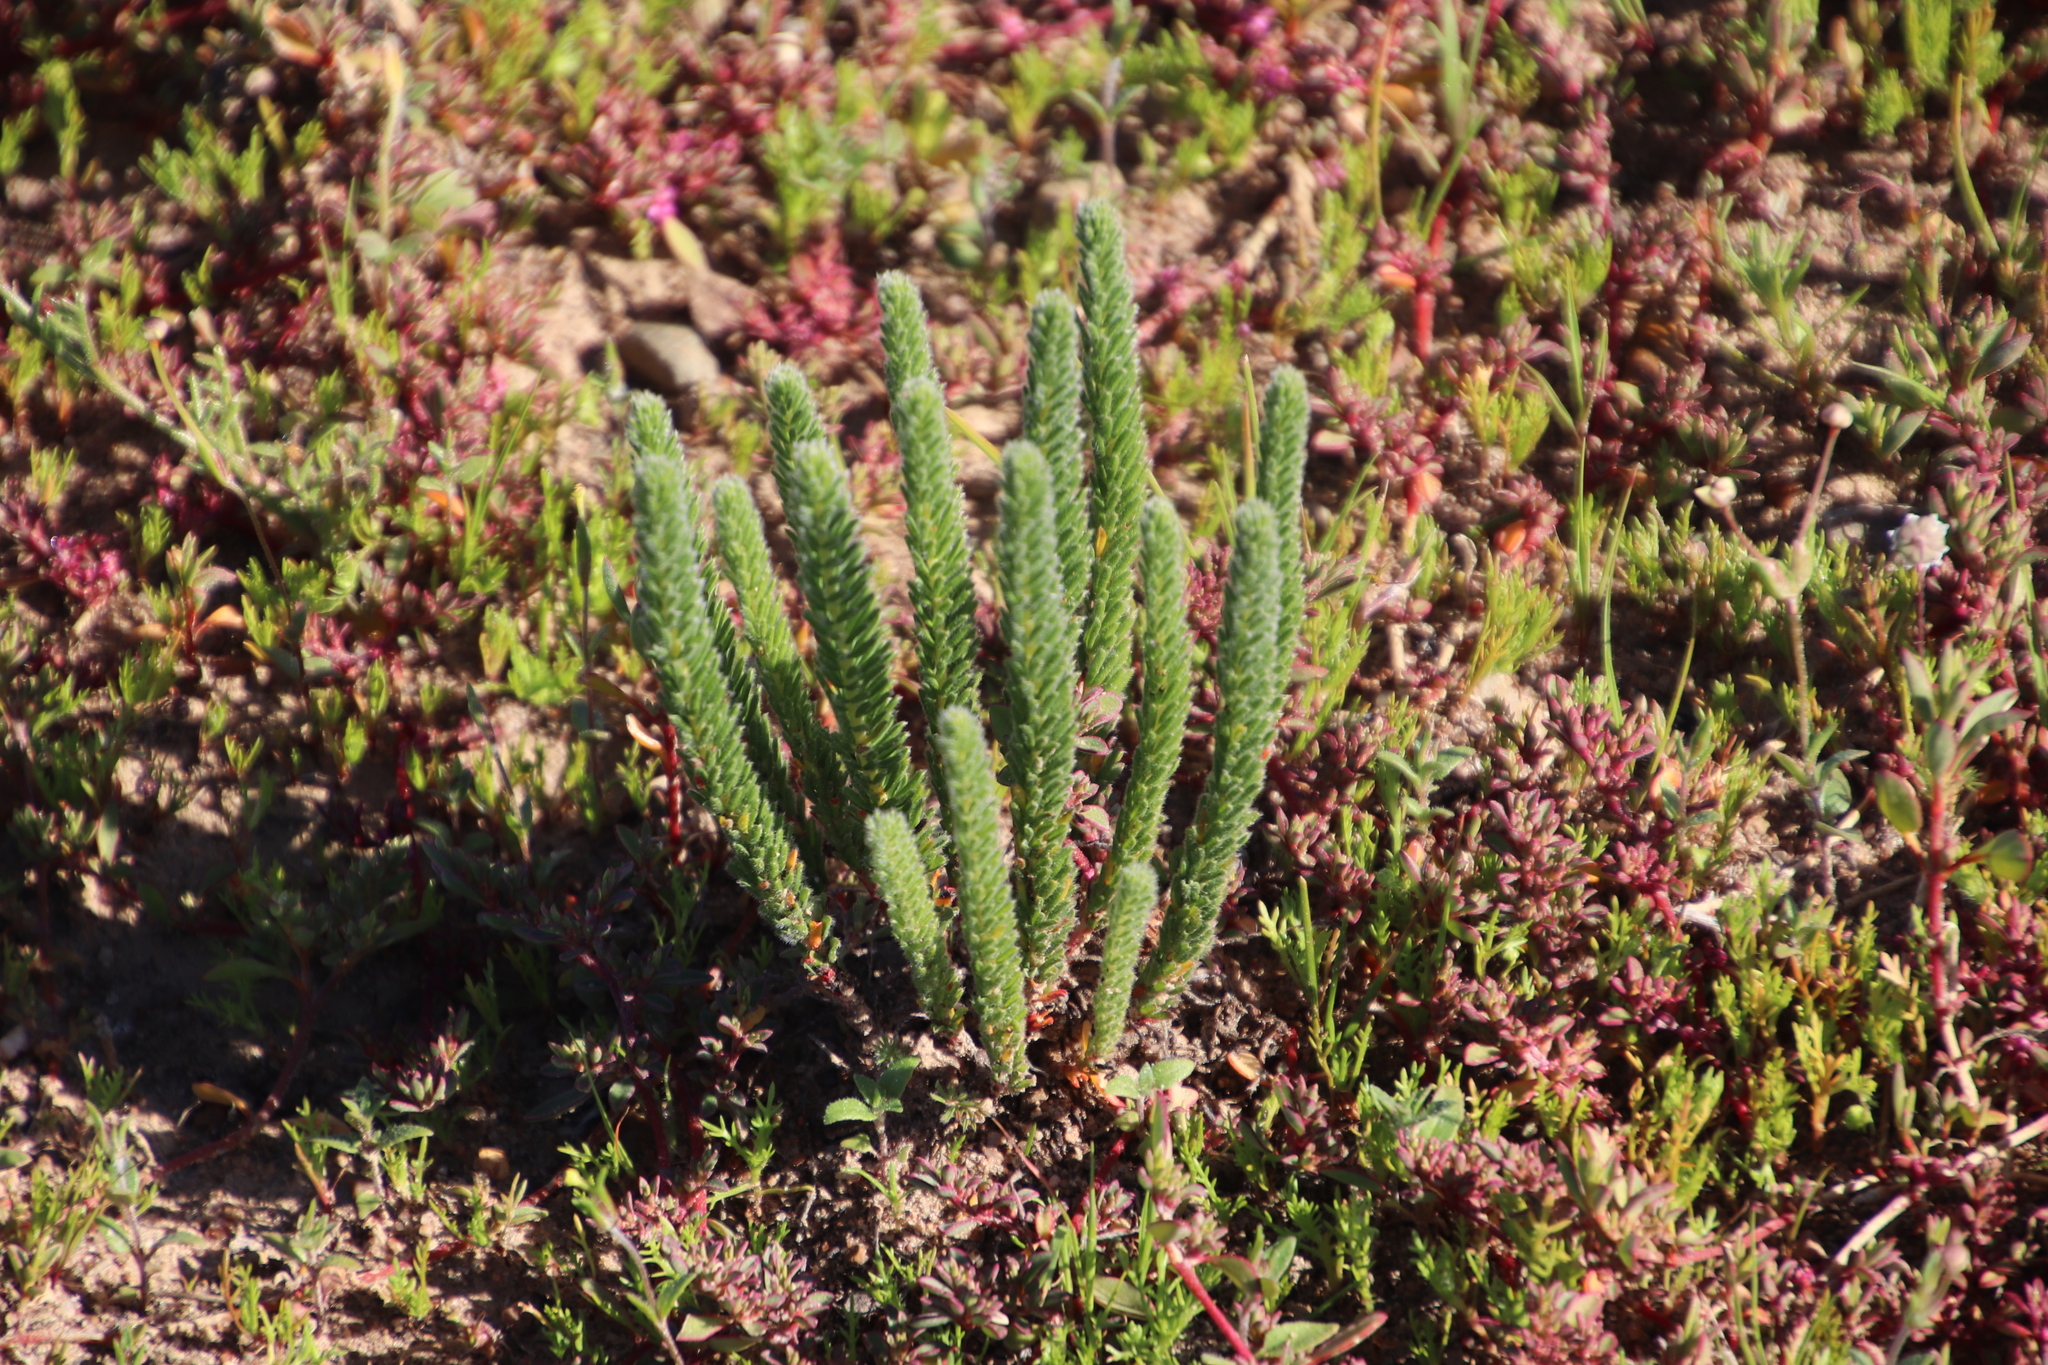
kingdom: Plantae
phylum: Tracheophyta
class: Magnoliopsida
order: Oxalidales
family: Oxalidaceae
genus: Oxalis
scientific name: Oxalis massoniana
